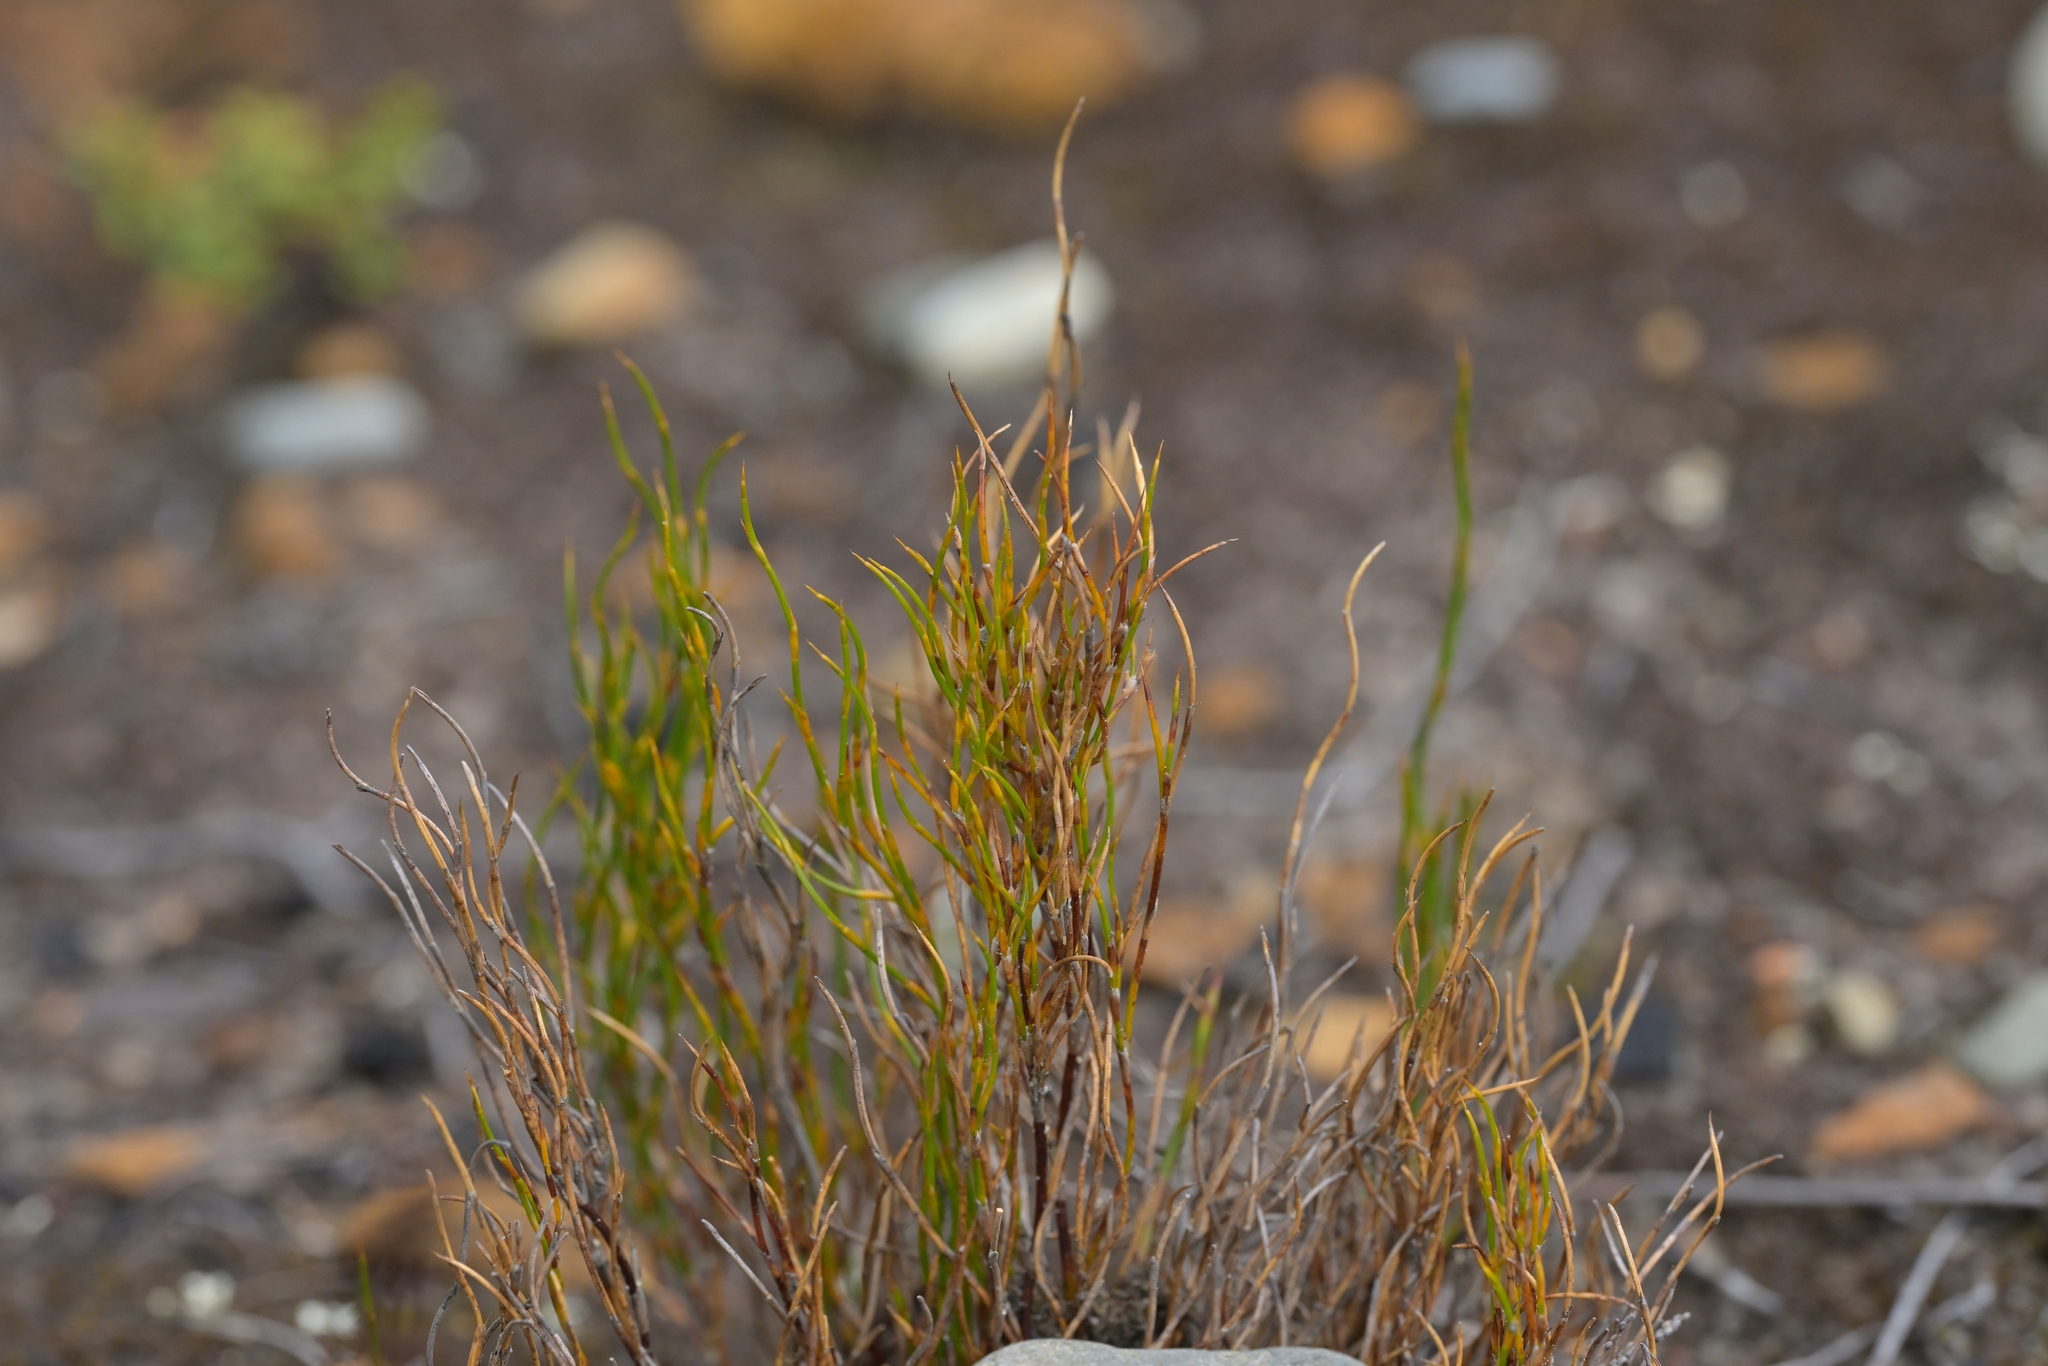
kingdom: Plantae
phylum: Tracheophyta
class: Liliopsida
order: Poales
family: Restionaceae
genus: Empodisma
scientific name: Empodisma minus
